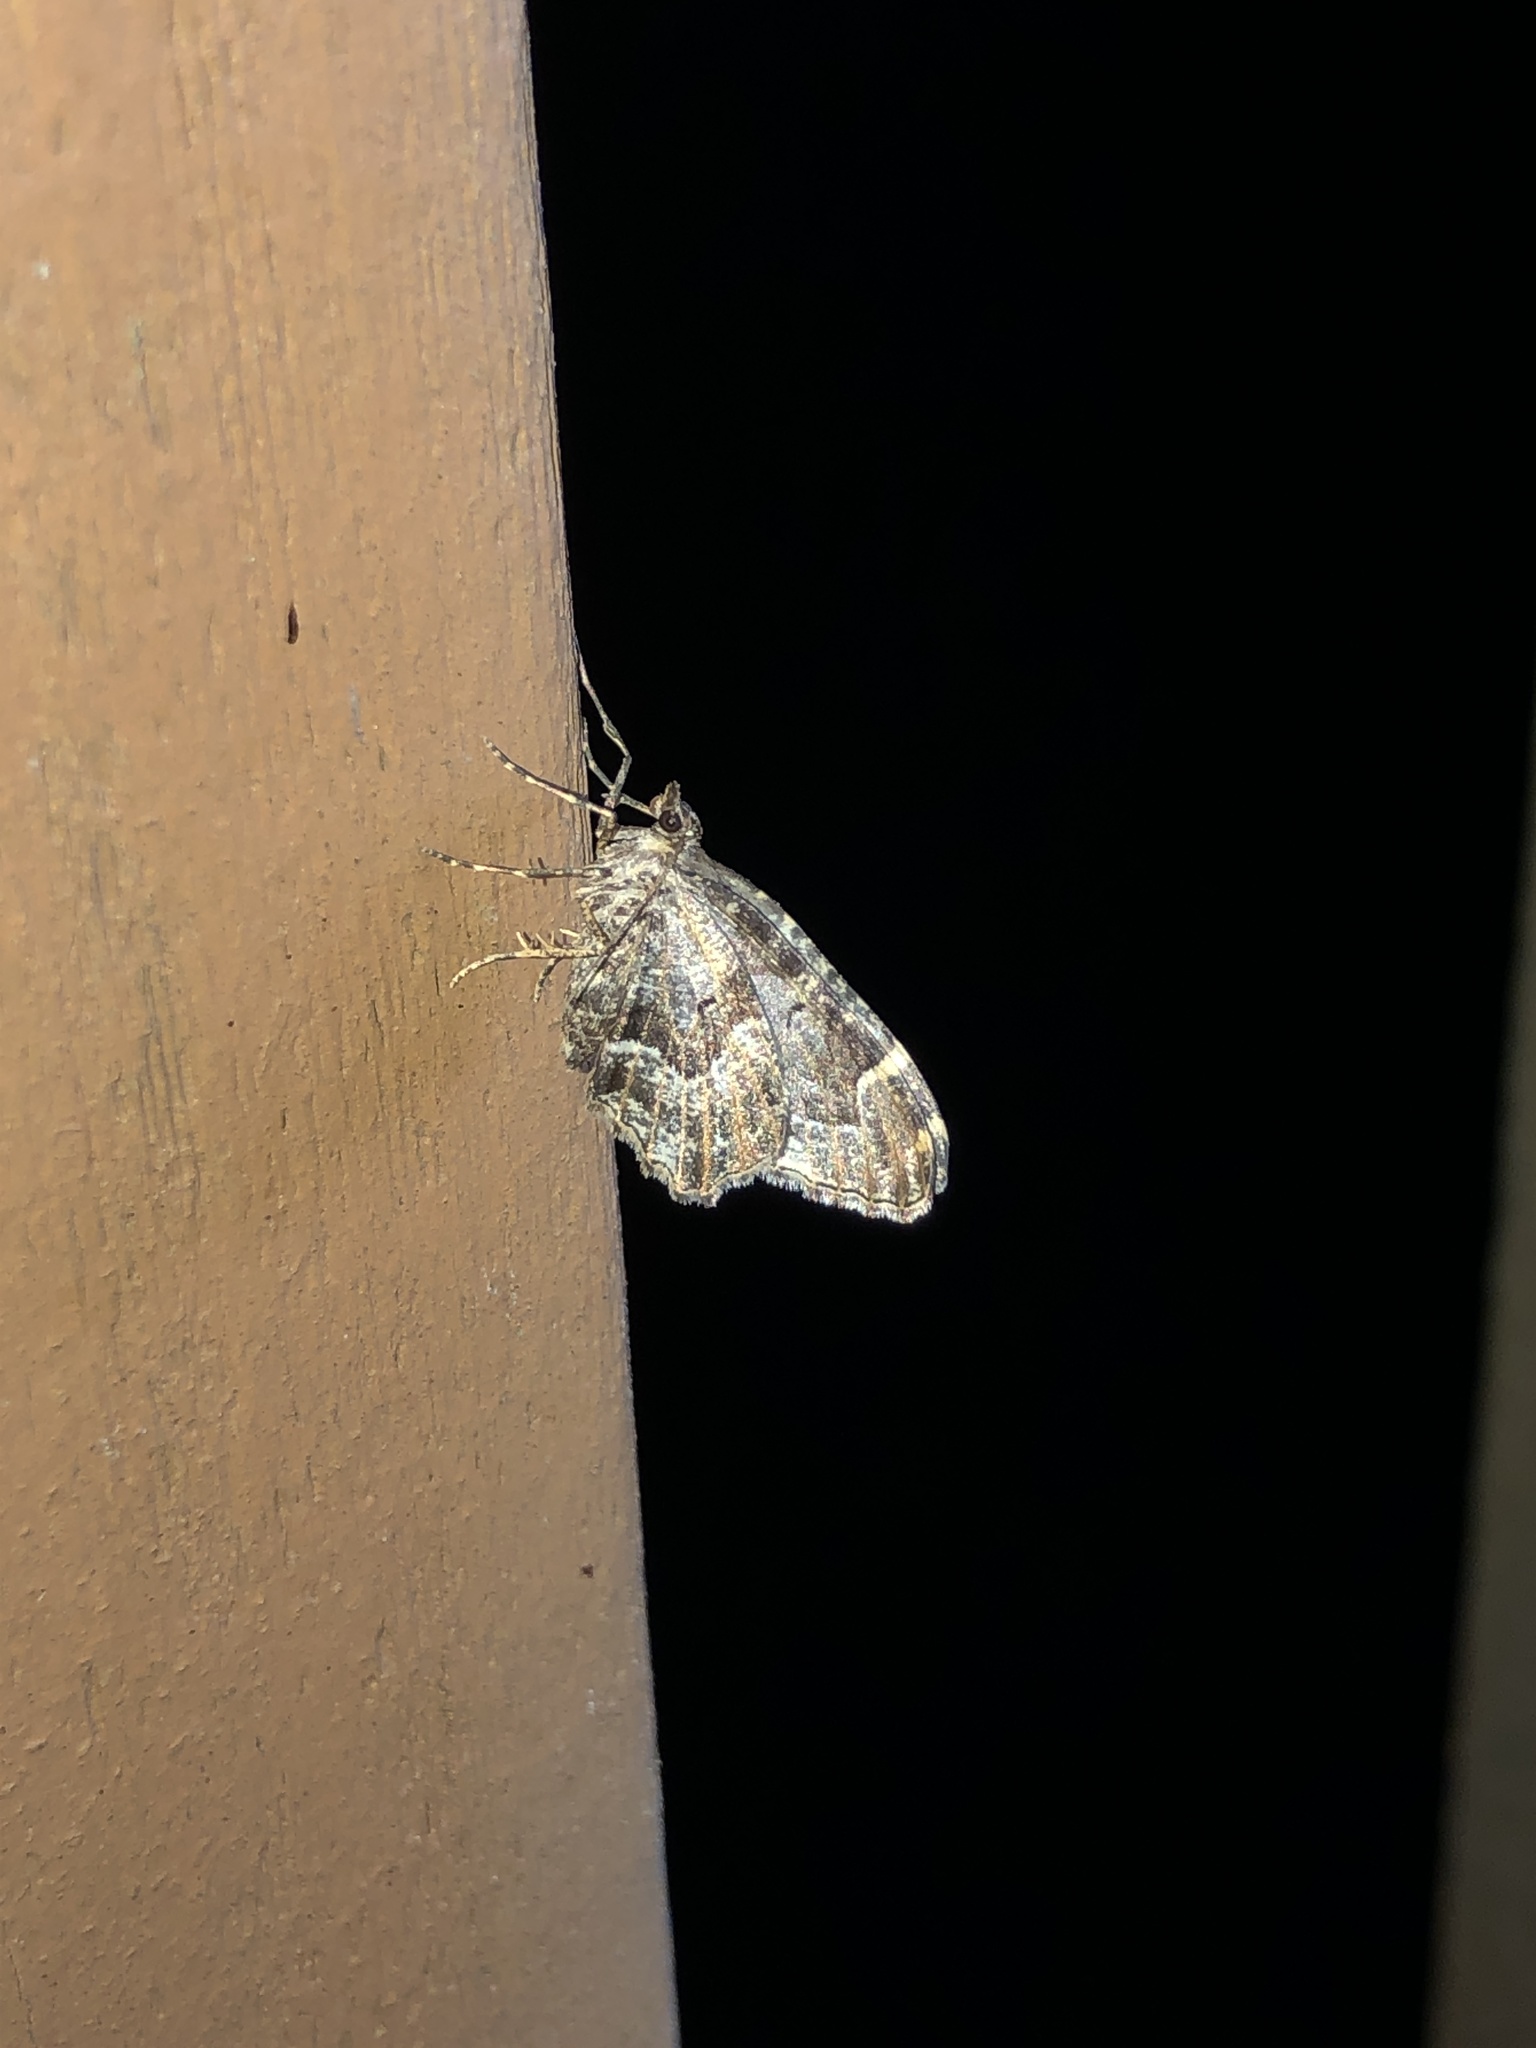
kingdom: Animalia
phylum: Arthropoda
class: Insecta
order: Lepidoptera
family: Geometridae
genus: Ceratodalia
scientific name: Ceratodalia gueneata
